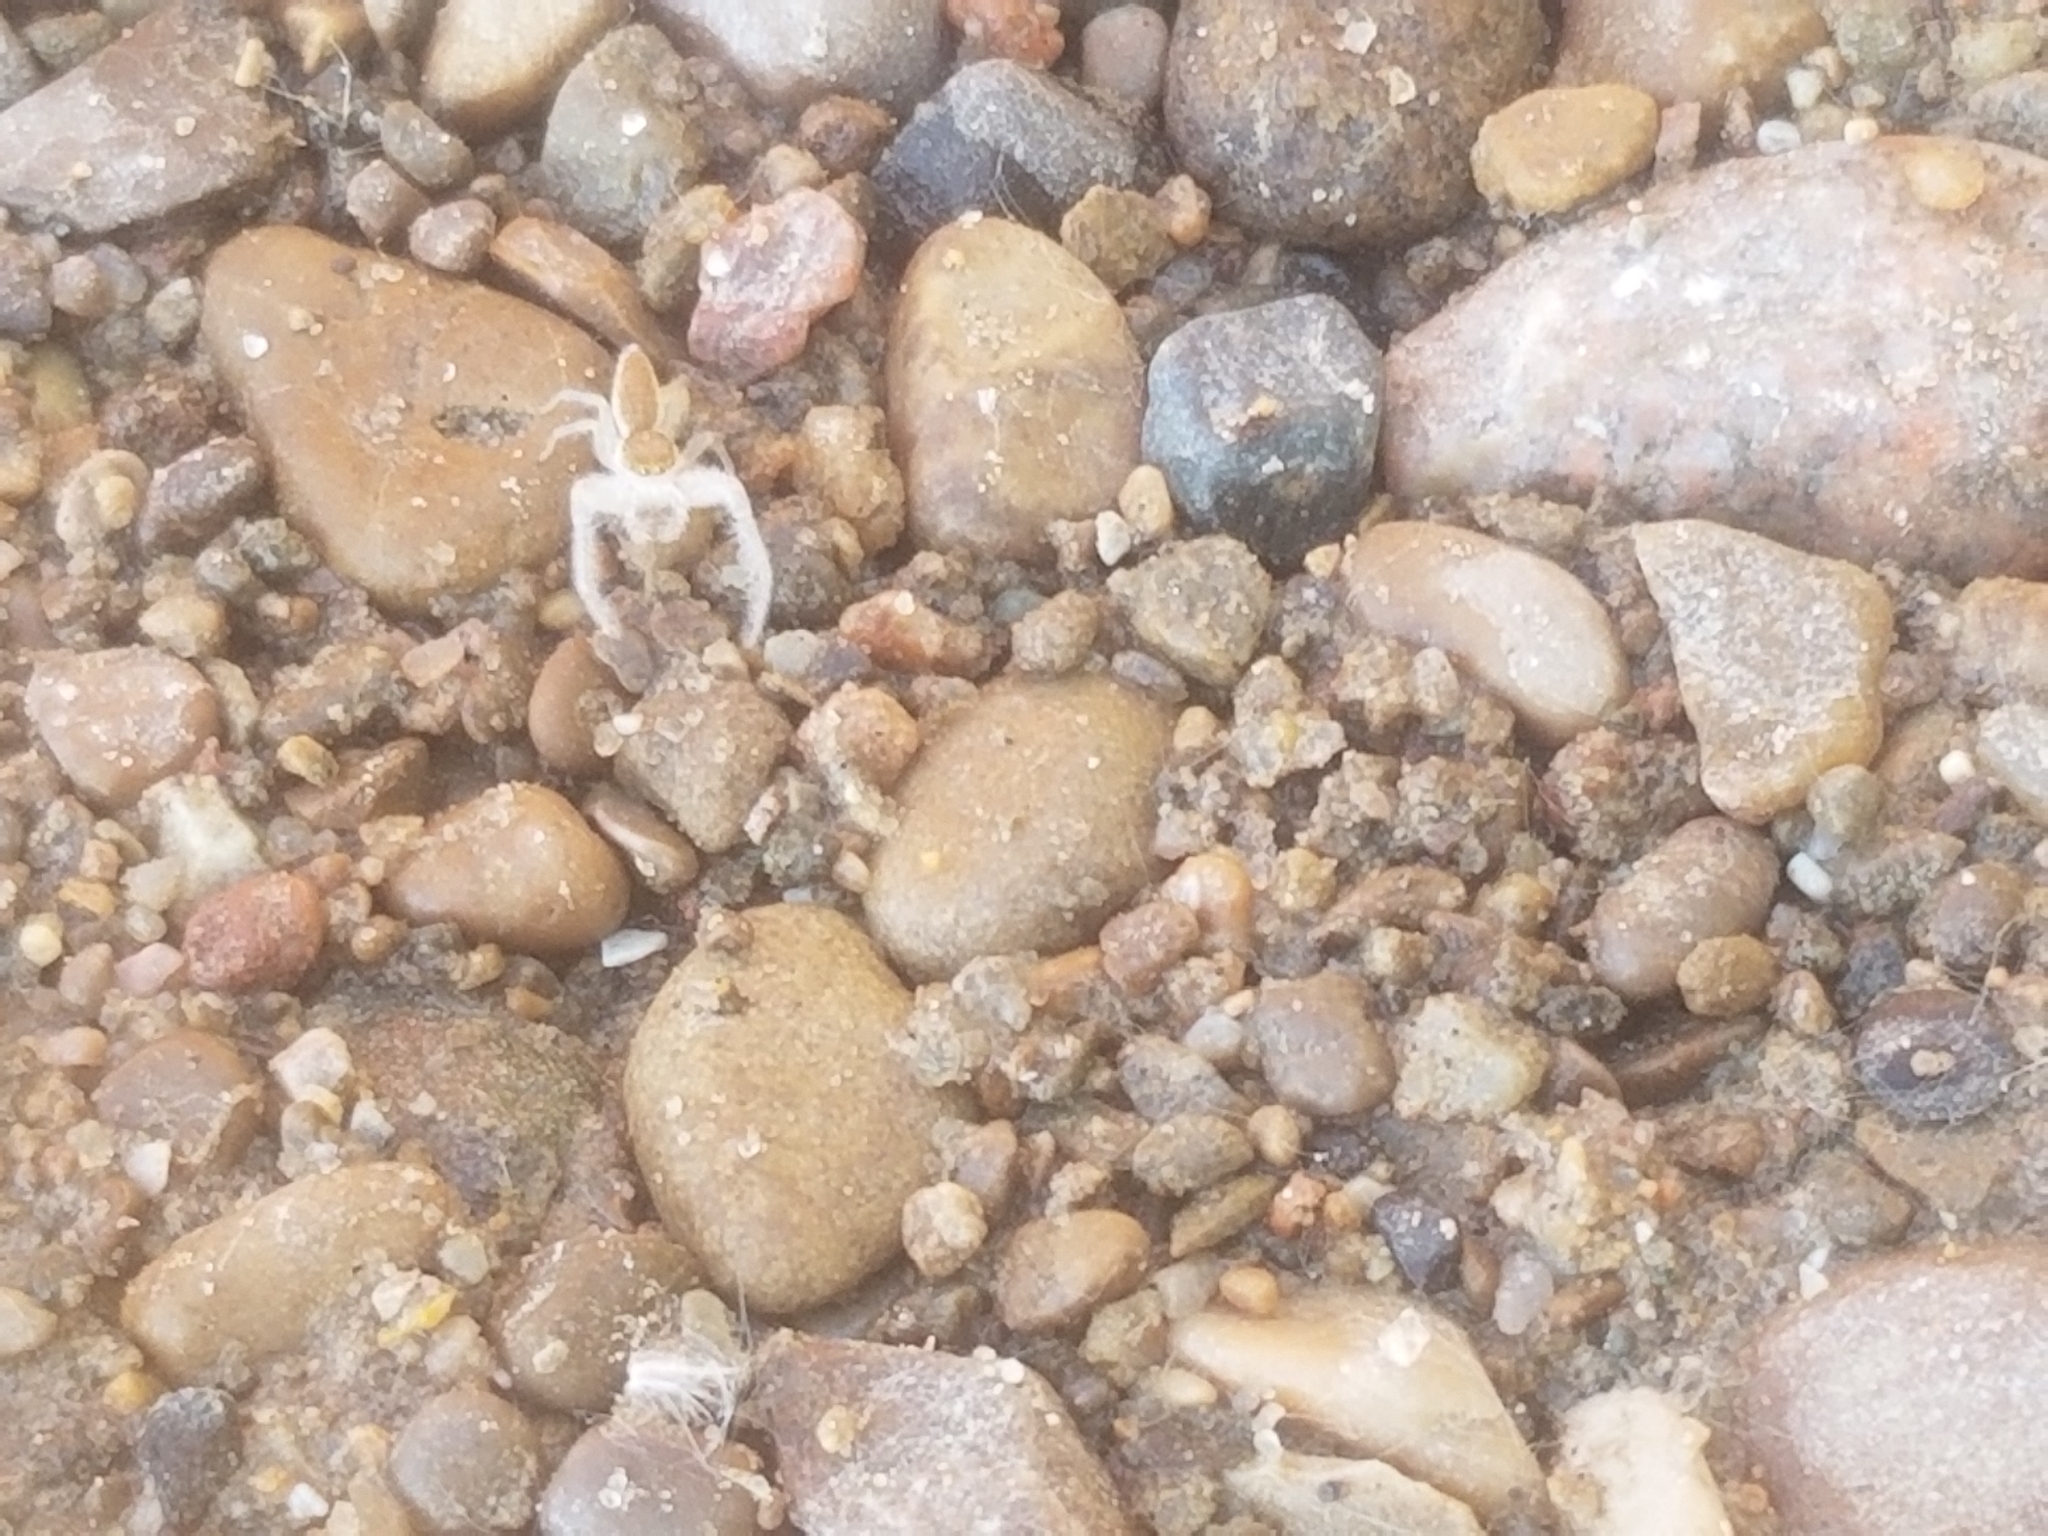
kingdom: Animalia
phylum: Arthropoda
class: Arachnida
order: Araneae
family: Salticidae
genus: Hentzia
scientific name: Hentzia mitrata
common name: White-jawed jumping spider
